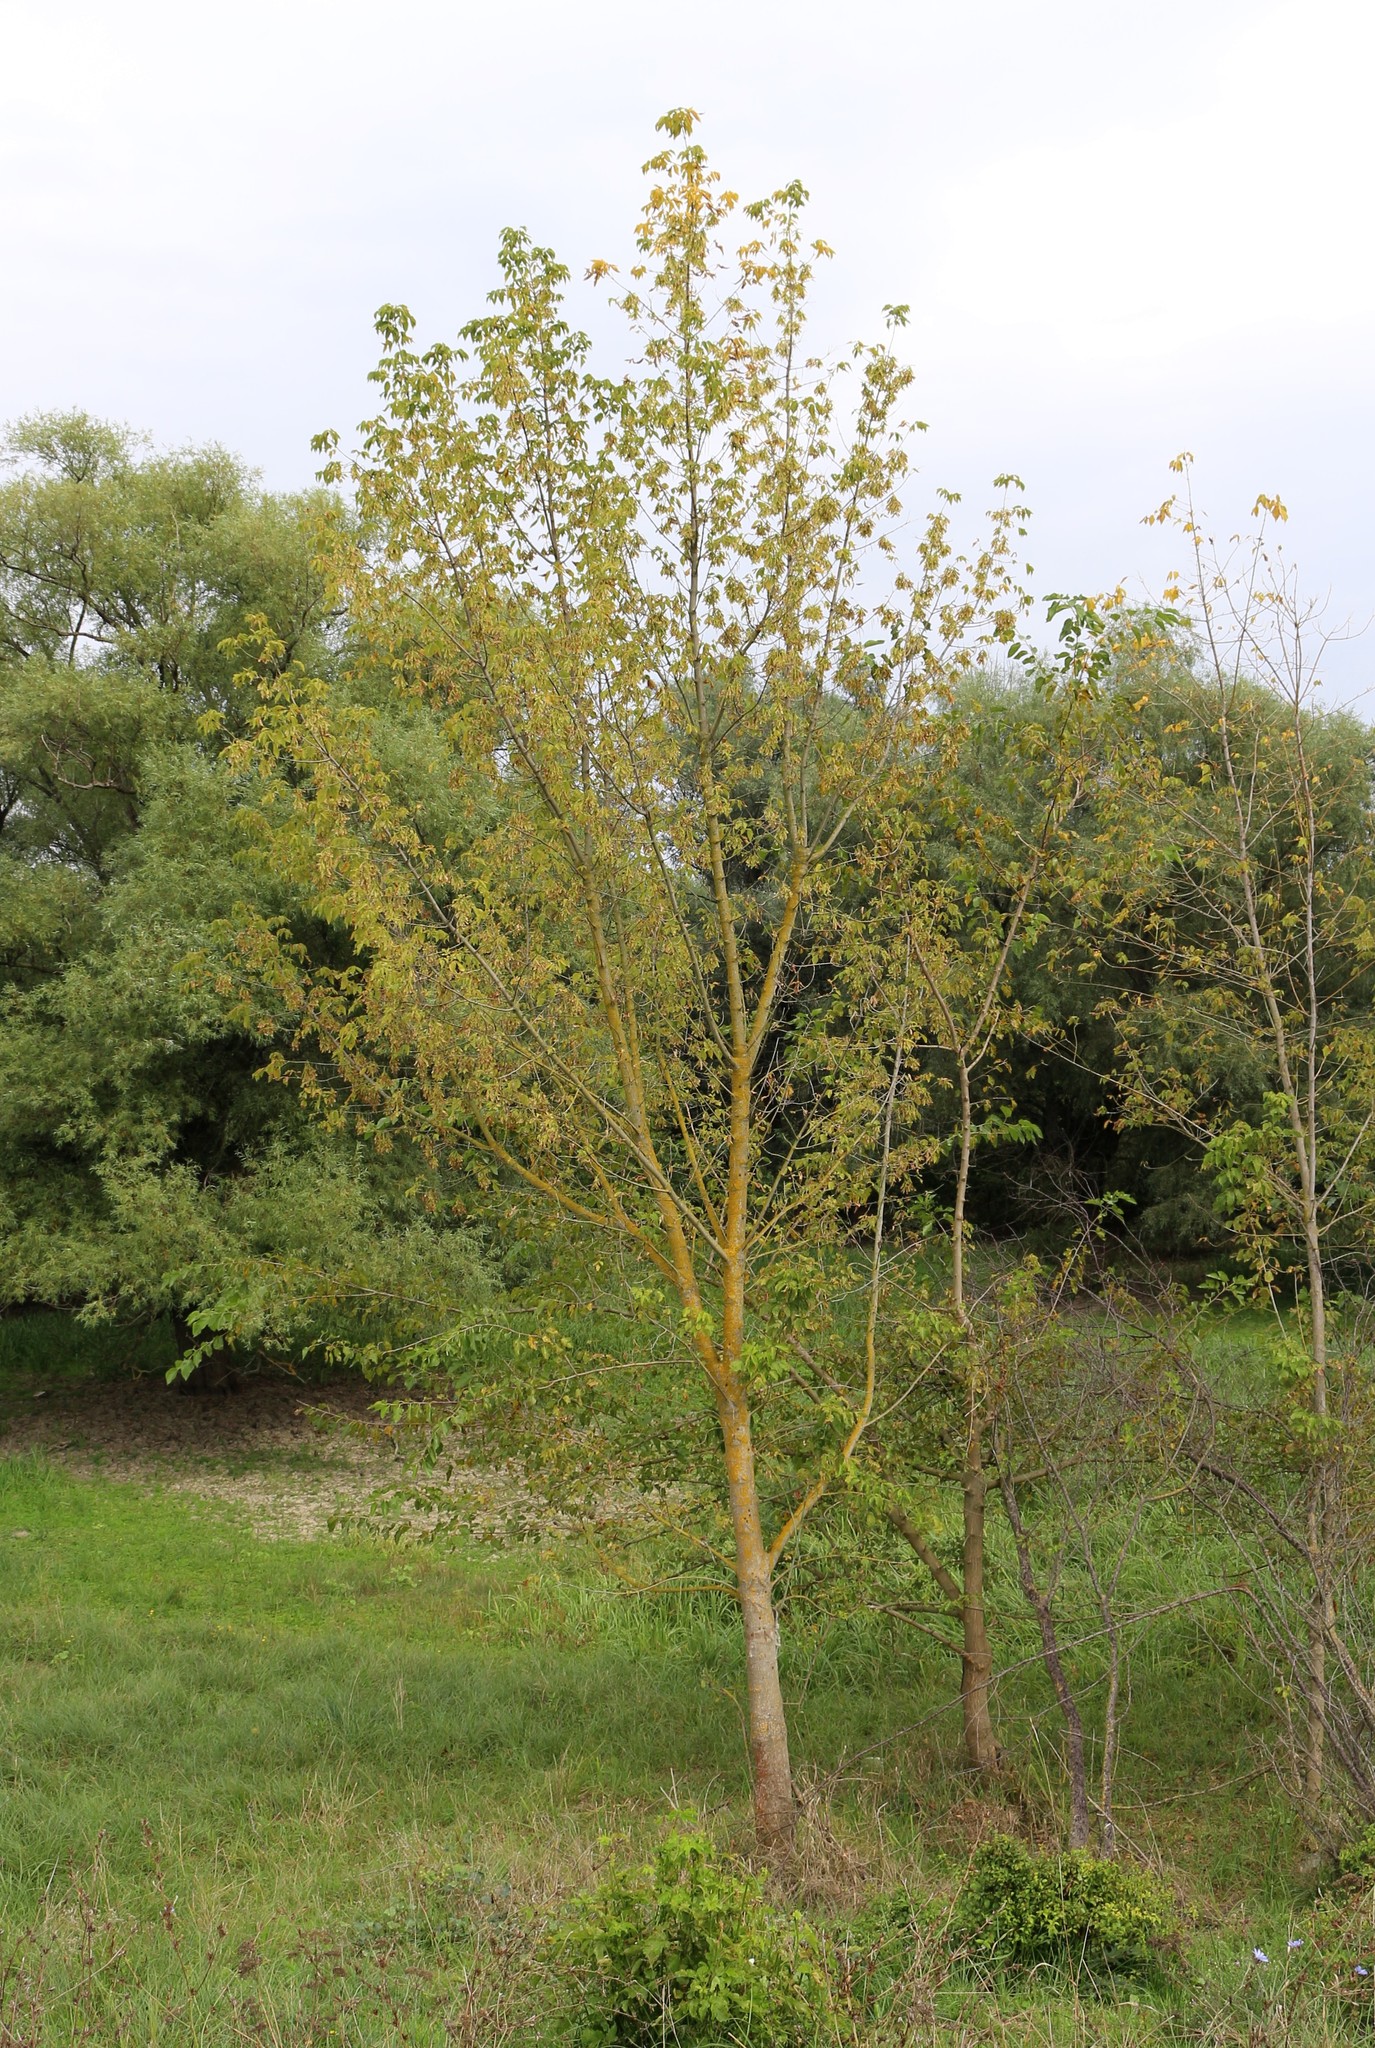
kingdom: Plantae
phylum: Tracheophyta
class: Magnoliopsida
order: Sapindales
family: Sapindaceae
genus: Acer
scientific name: Acer negundo
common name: Ashleaf maple
